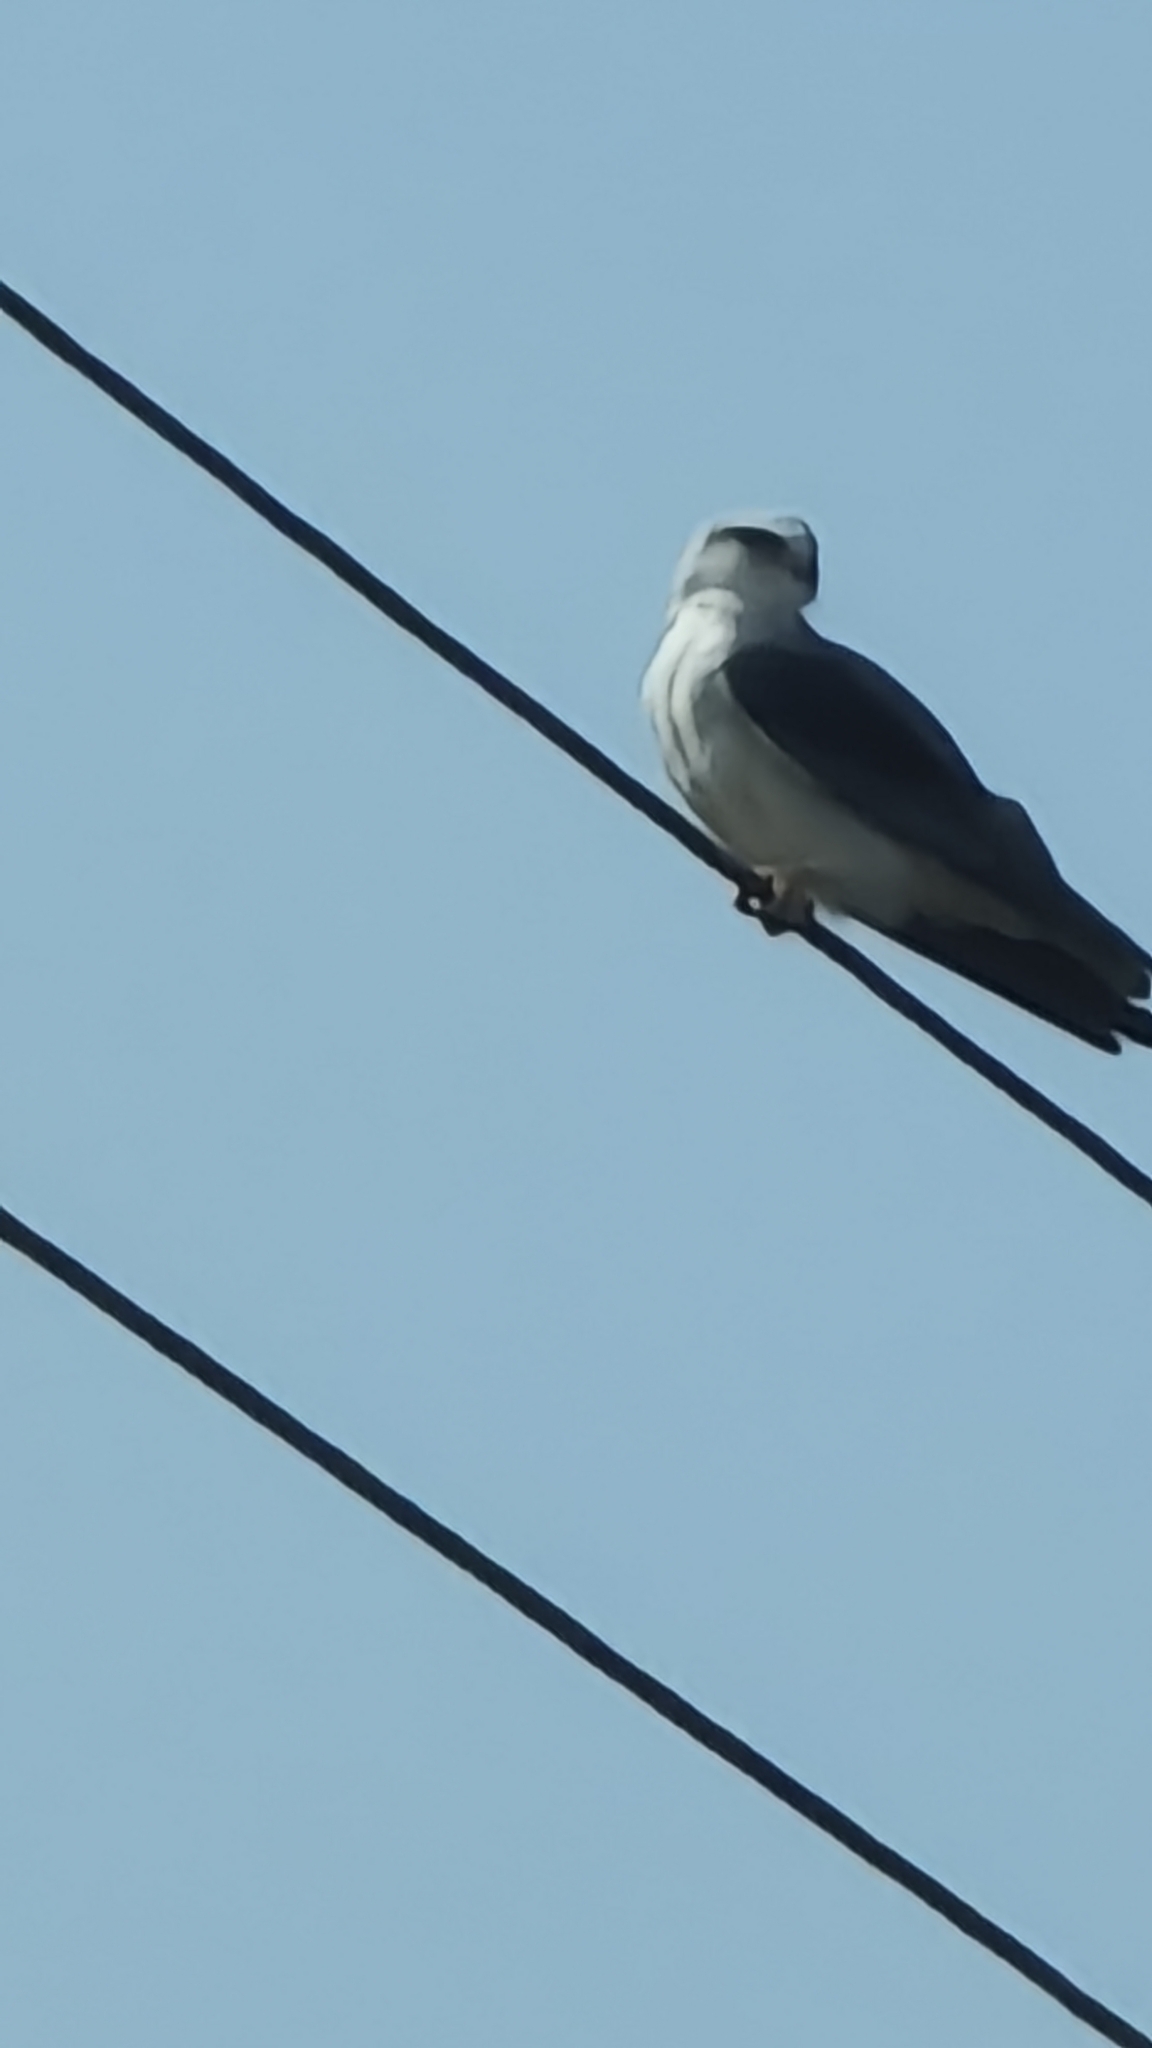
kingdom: Animalia
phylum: Chordata
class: Aves
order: Accipitriformes
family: Accipitridae
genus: Elanus
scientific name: Elanus caeruleus
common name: Black-winged kite
